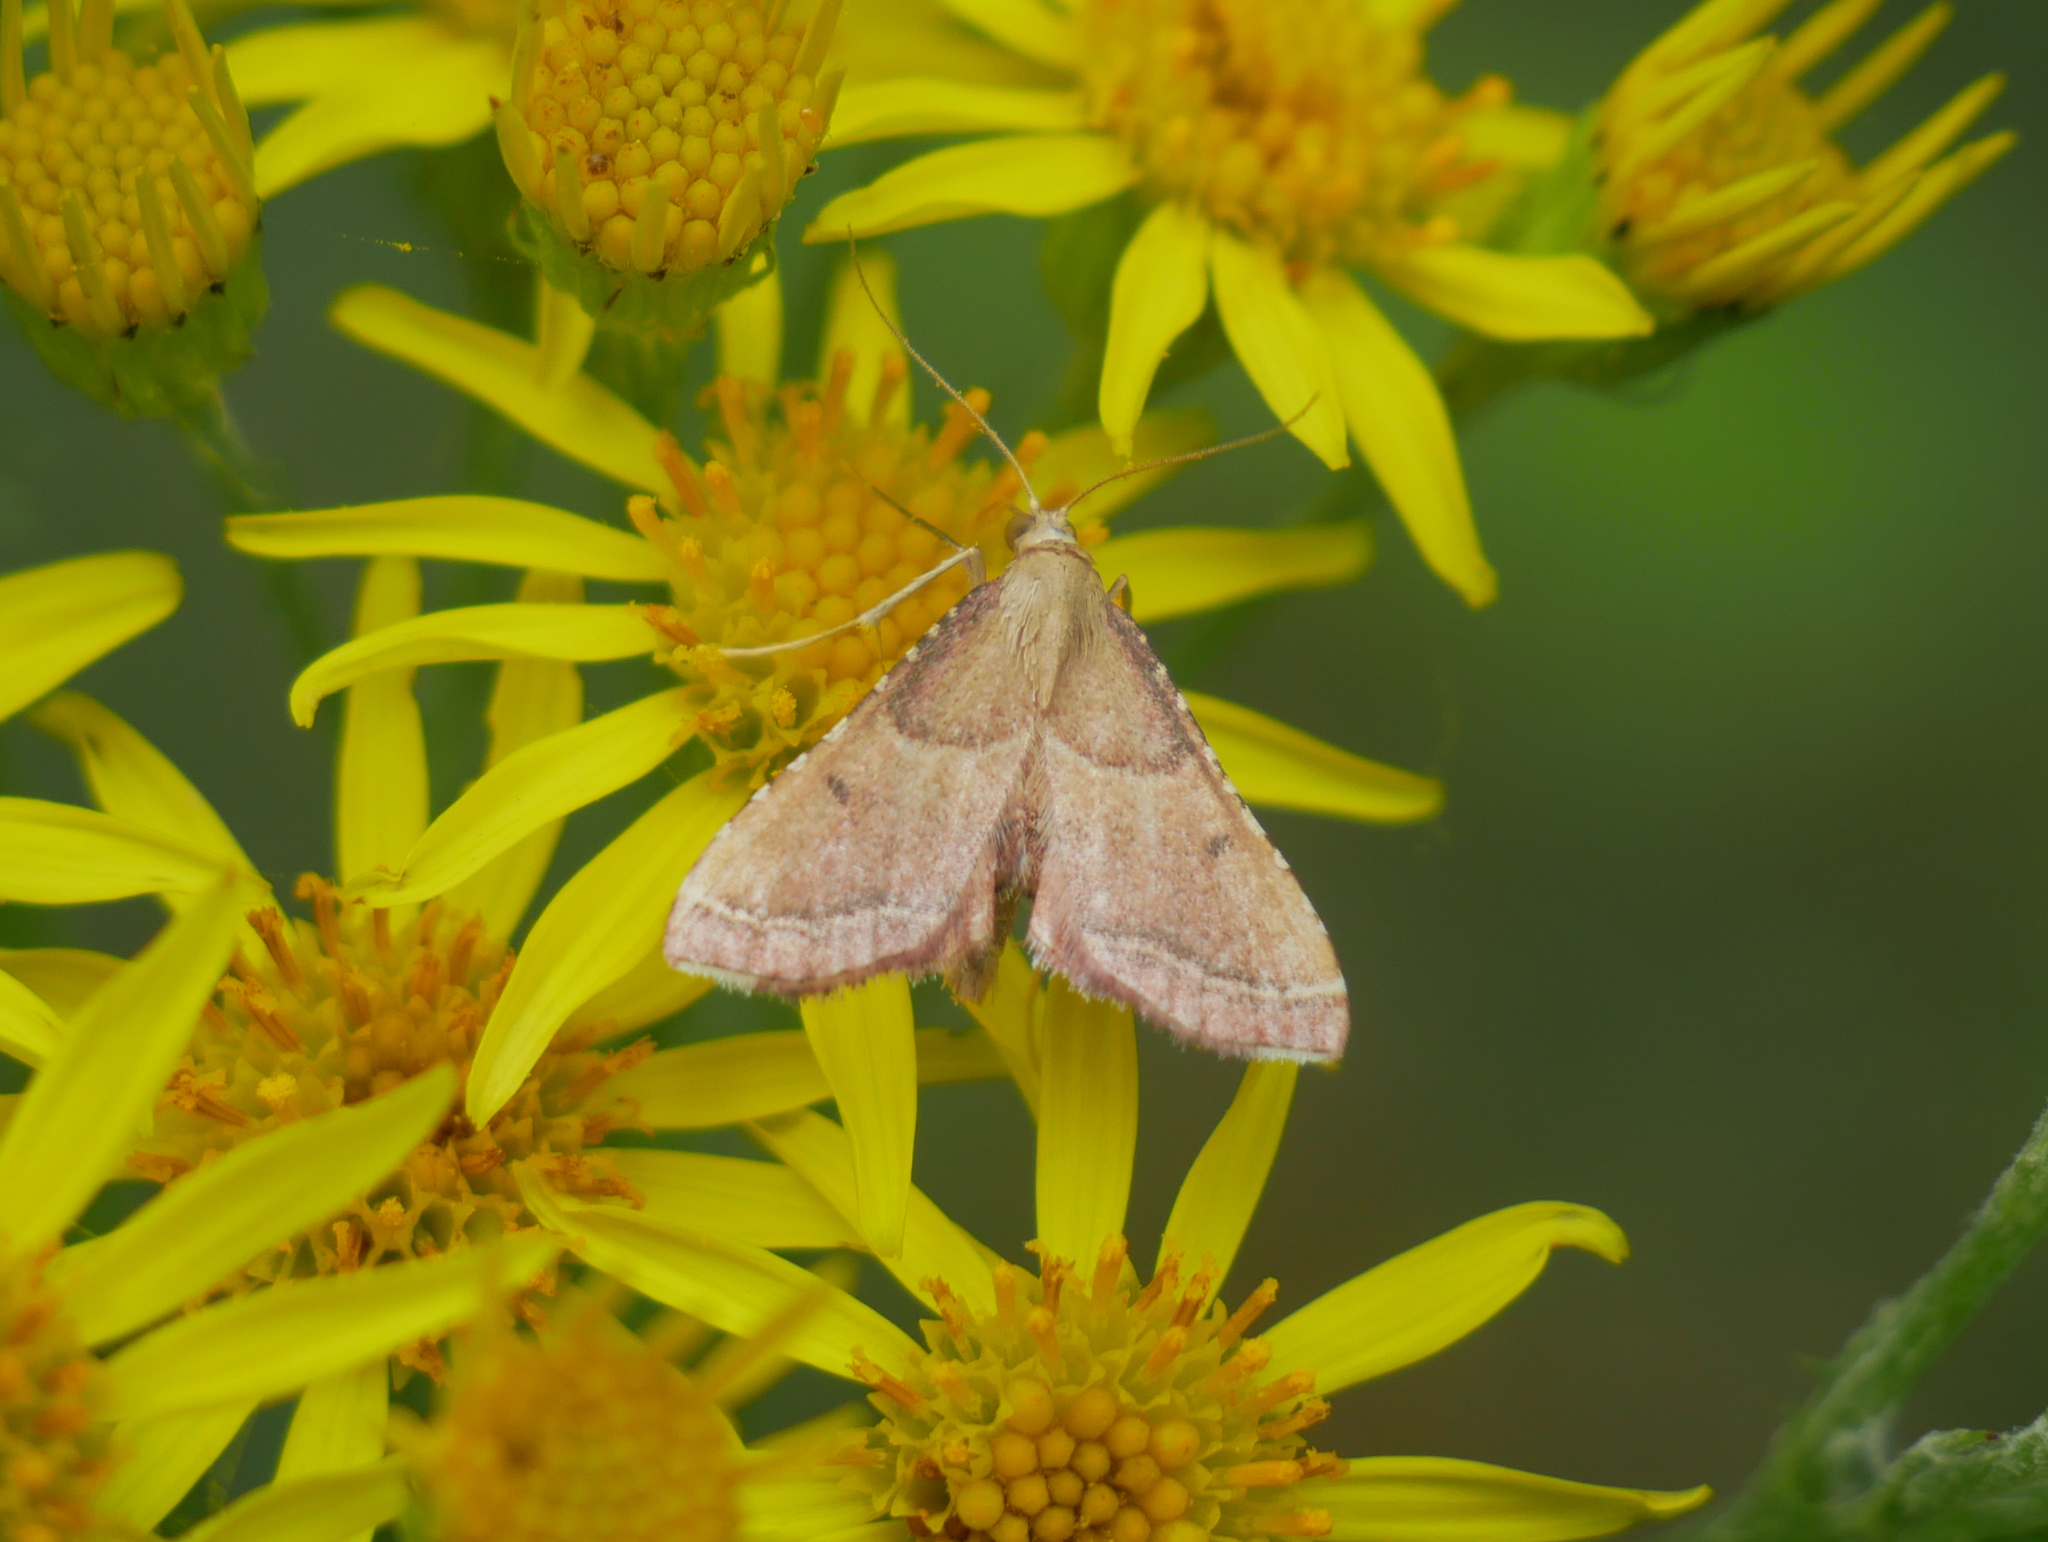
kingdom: Animalia
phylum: Arthropoda
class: Insecta
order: Lepidoptera
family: Pyralidae
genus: Endotricha
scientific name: Endotricha flammealis
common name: Rosy tabby
